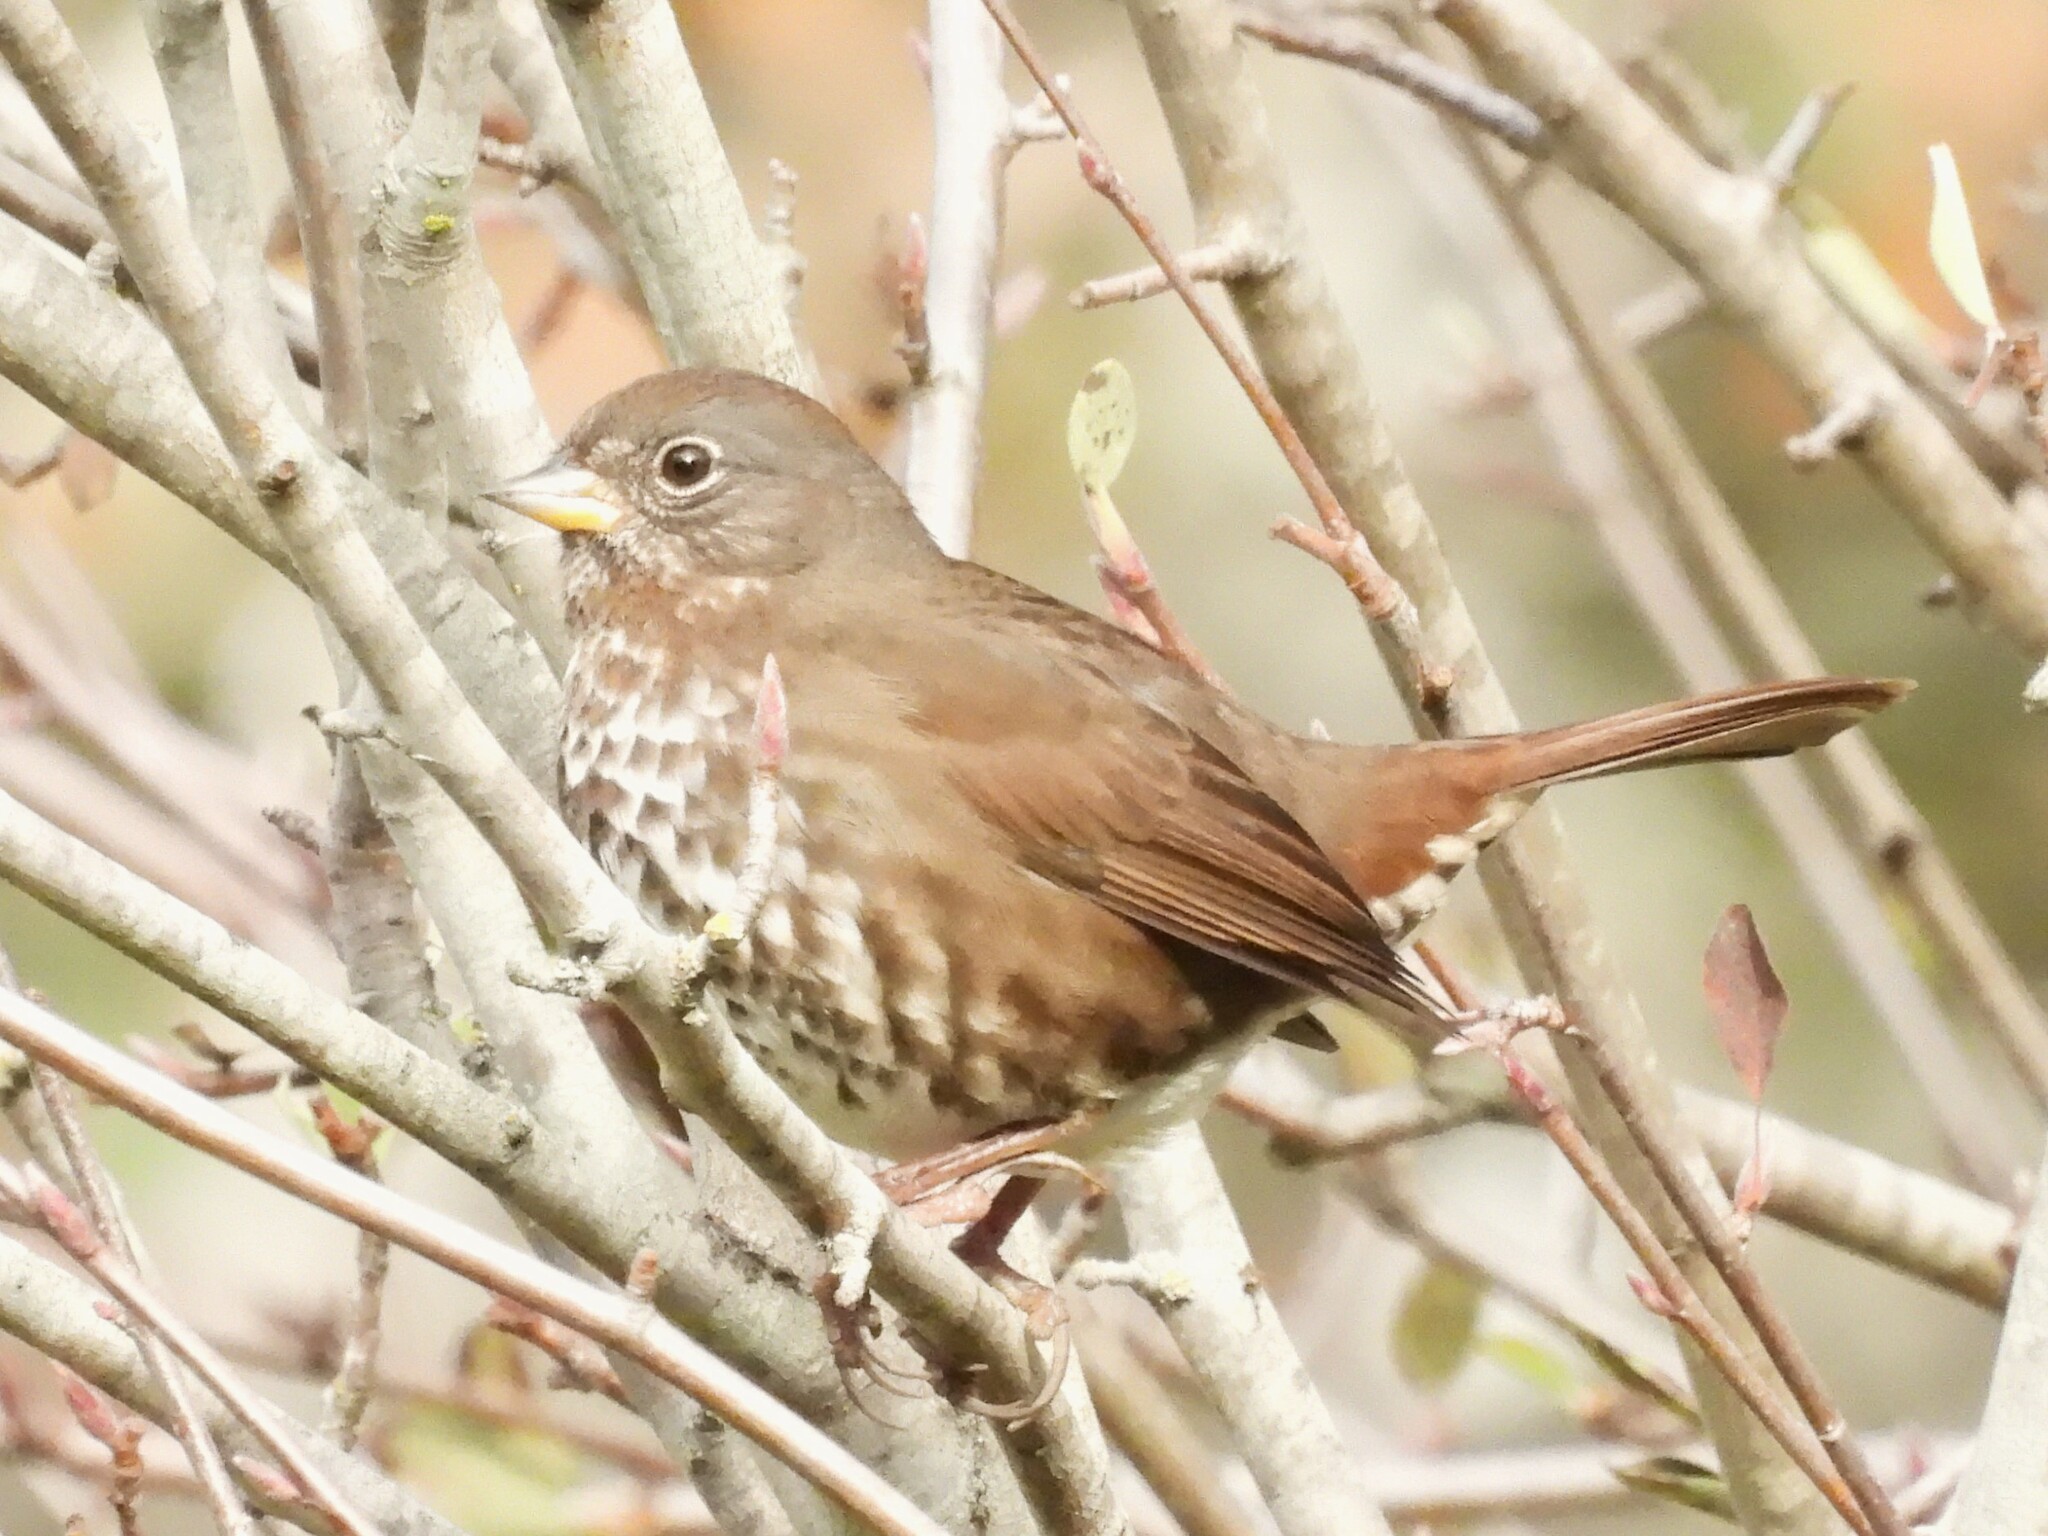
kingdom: Animalia
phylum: Chordata
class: Aves
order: Passeriformes
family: Passerellidae
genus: Passerella
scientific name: Passerella iliaca
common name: Fox sparrow
